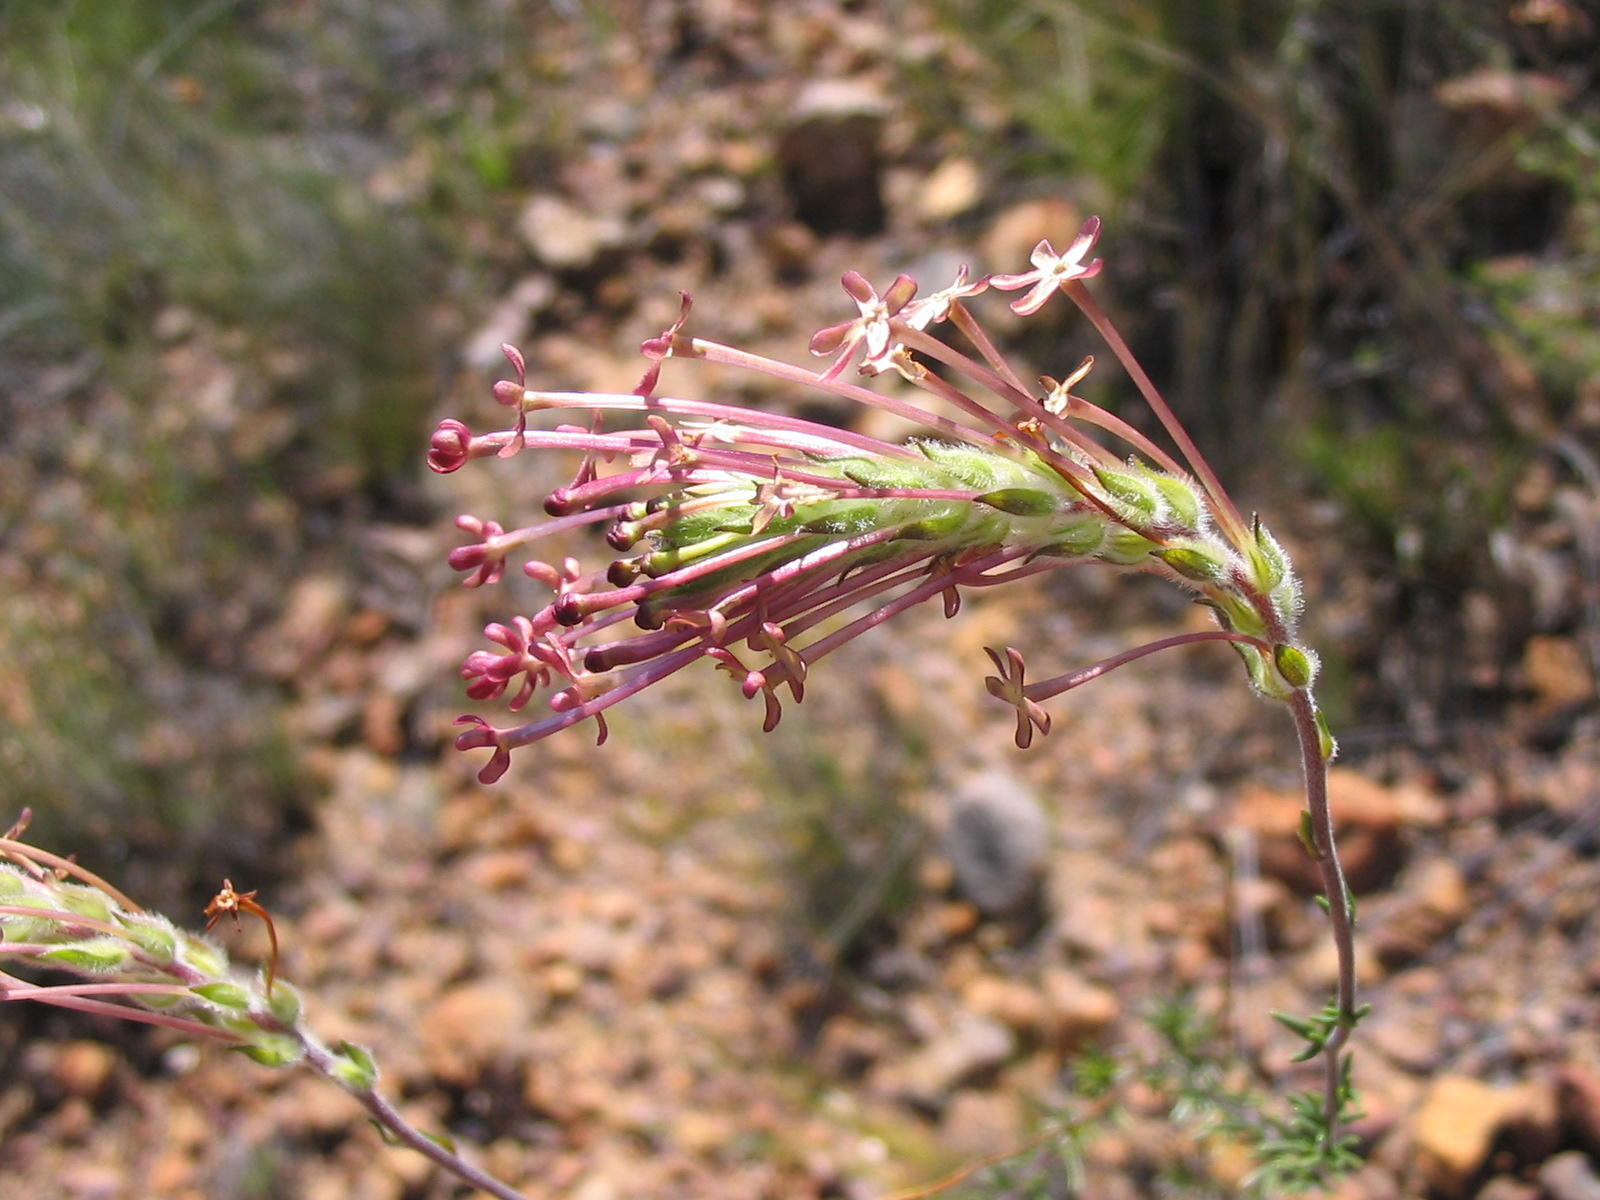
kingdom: Plantae
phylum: Tracheophyta
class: Magnoliopsida
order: Lamiales
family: Scrophulariaceae
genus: Gosela
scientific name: Gosela eckloniana
